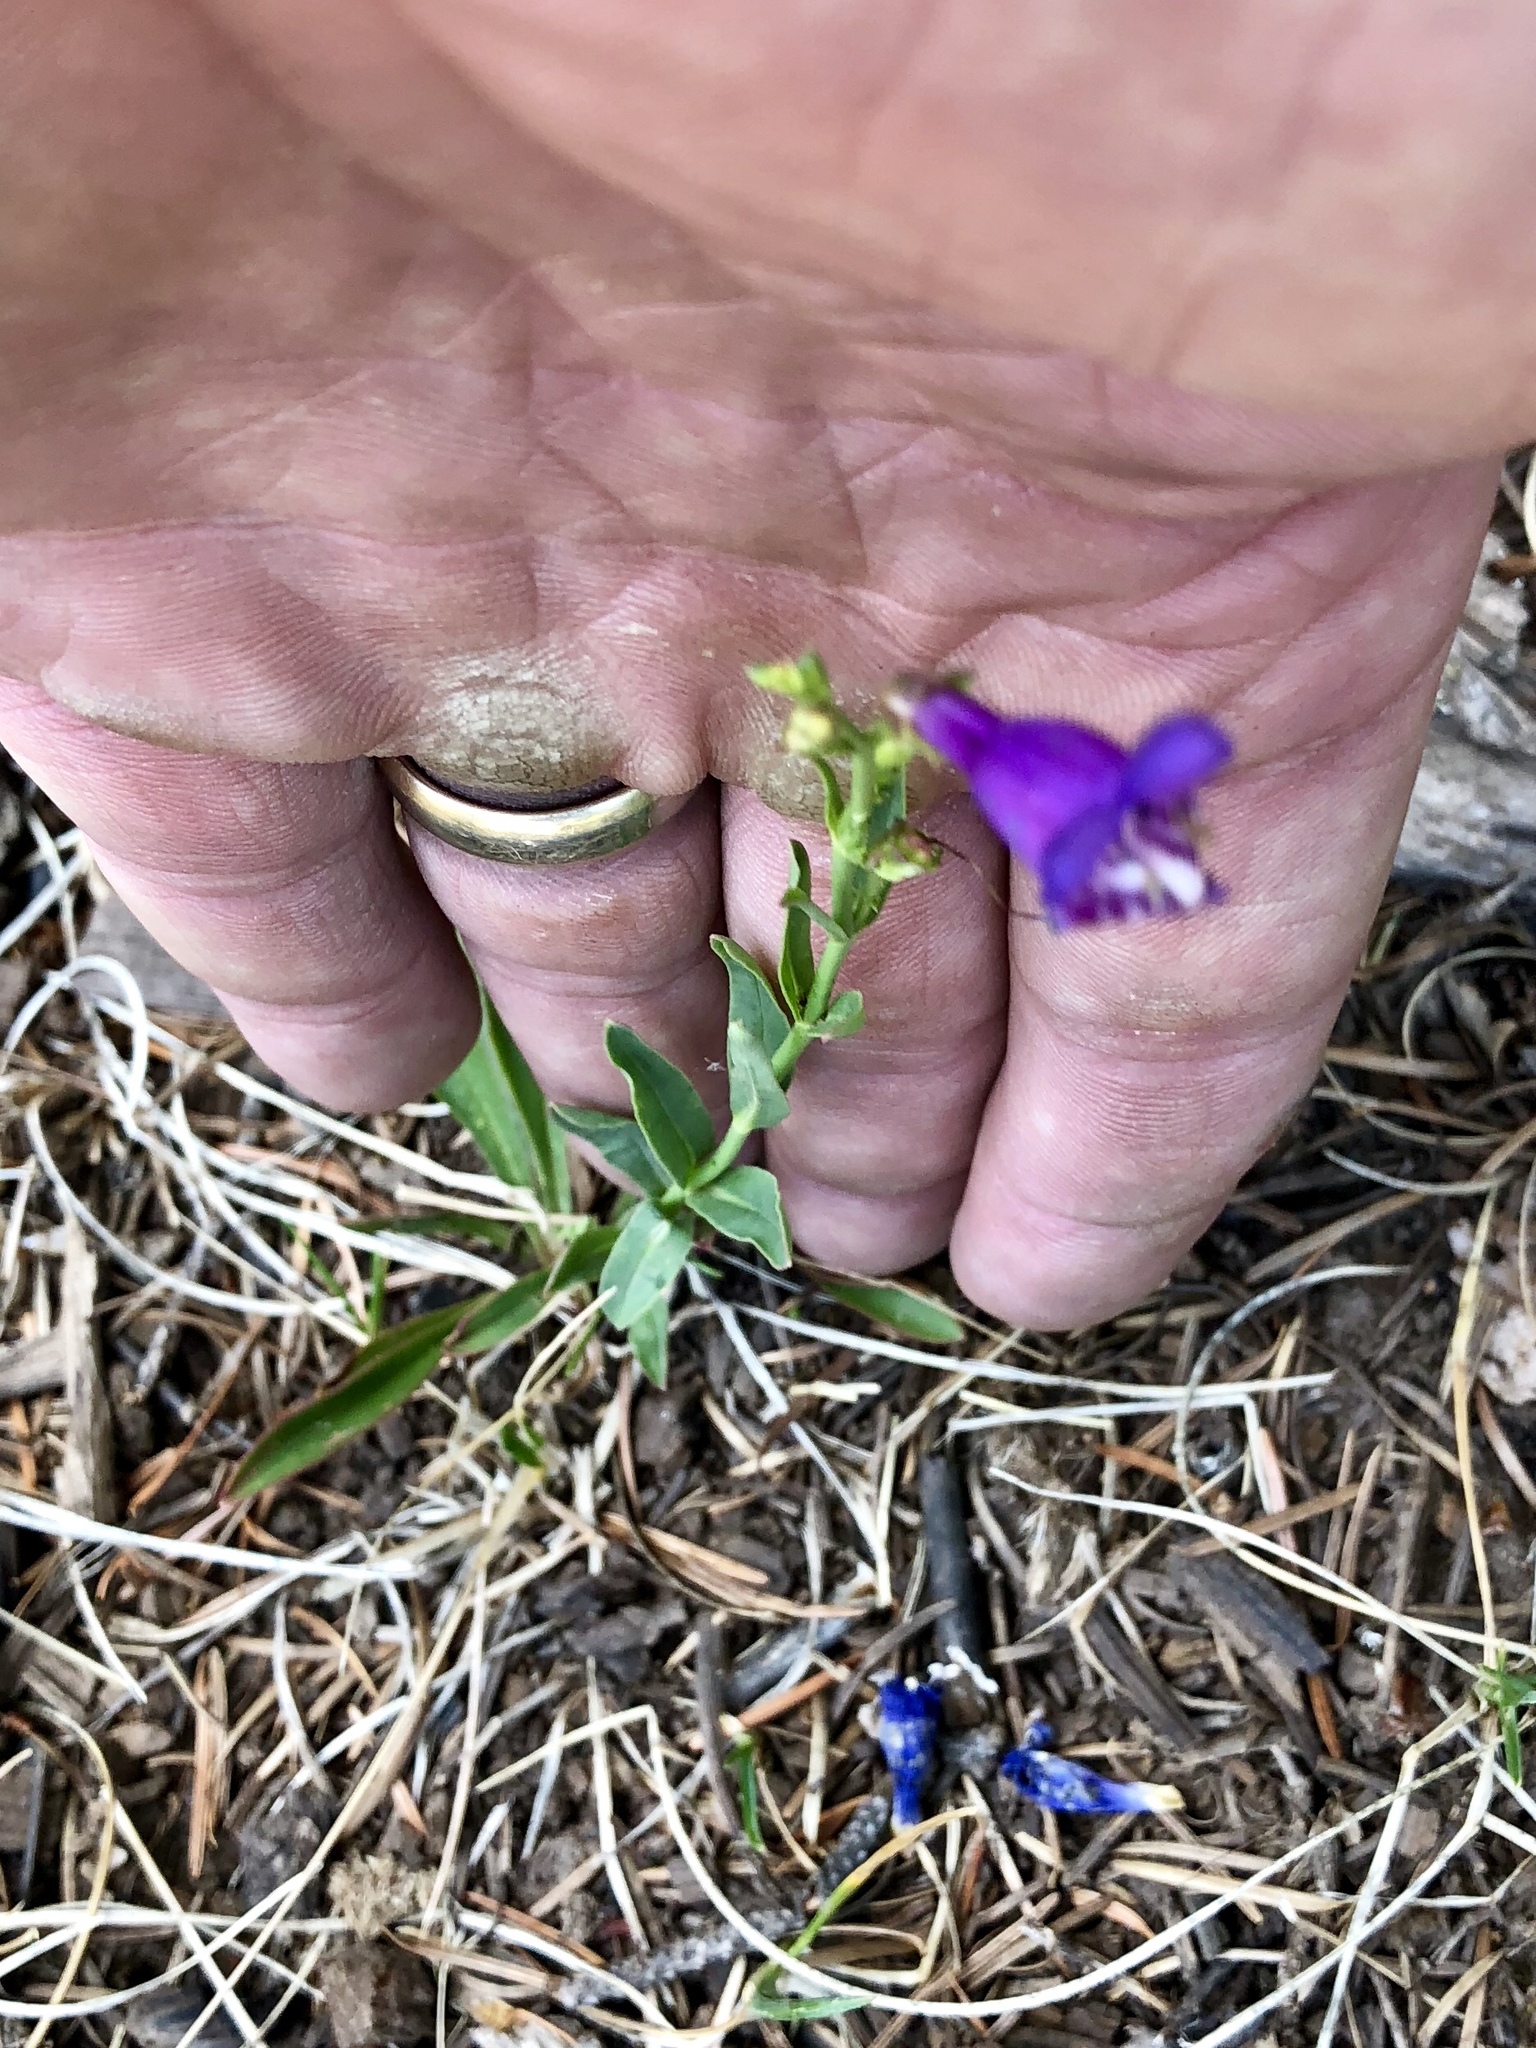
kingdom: Plantae
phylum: Tracheophyta
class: Magnoliopsida
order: Lamiales
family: Plantaginaceae
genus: Penstemon
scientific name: Penstemon neomexicanus
